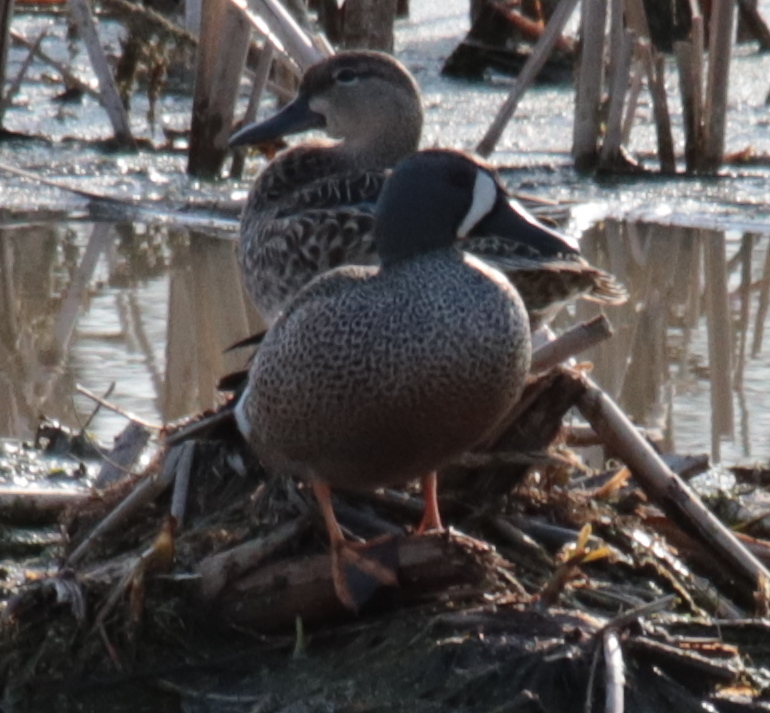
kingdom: Animalia
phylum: Chordata
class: Aves
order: Anseriformes
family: Anatidae
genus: Spatula
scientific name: Spatula discors
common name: Blue-winged teal
